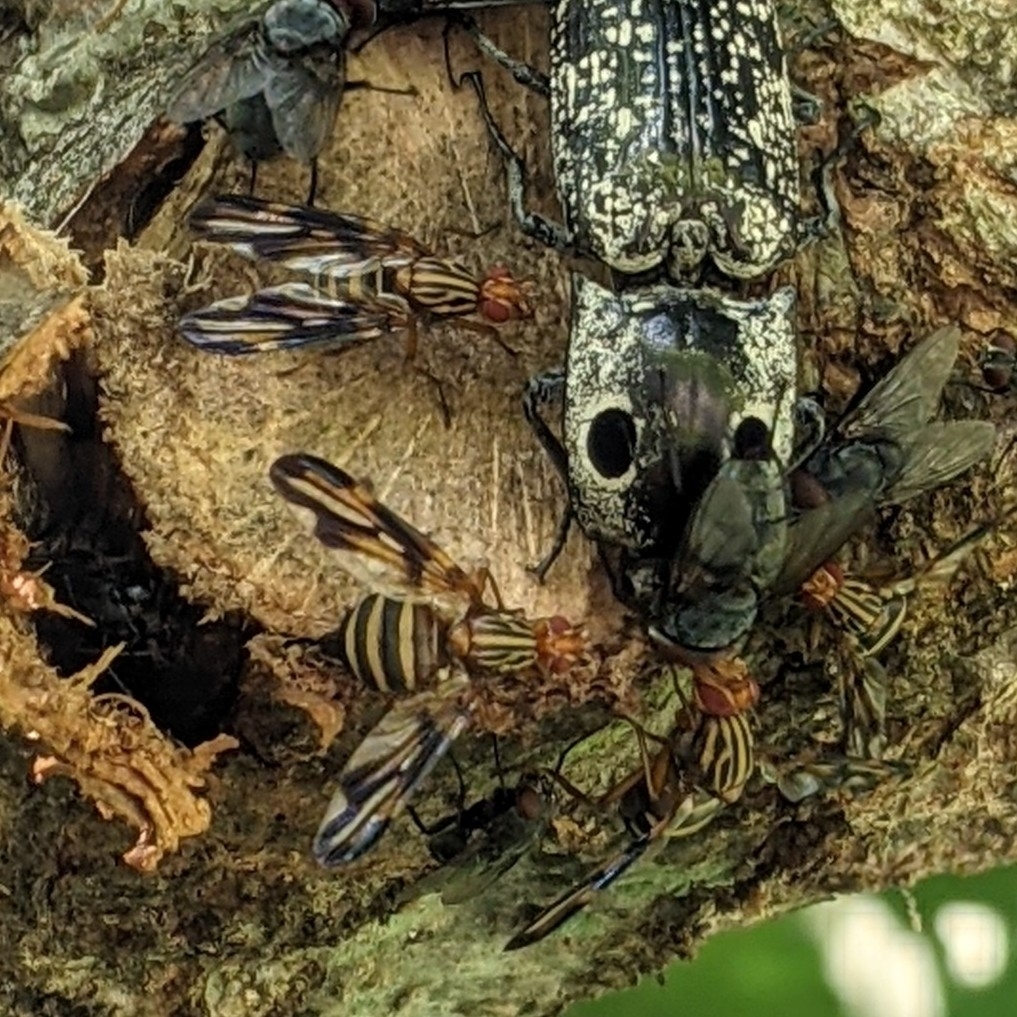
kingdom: Animalia
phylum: Arthropoda
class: Insecta
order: Diptera
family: Ulidiidae
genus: Idana
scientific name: Idana marginata
